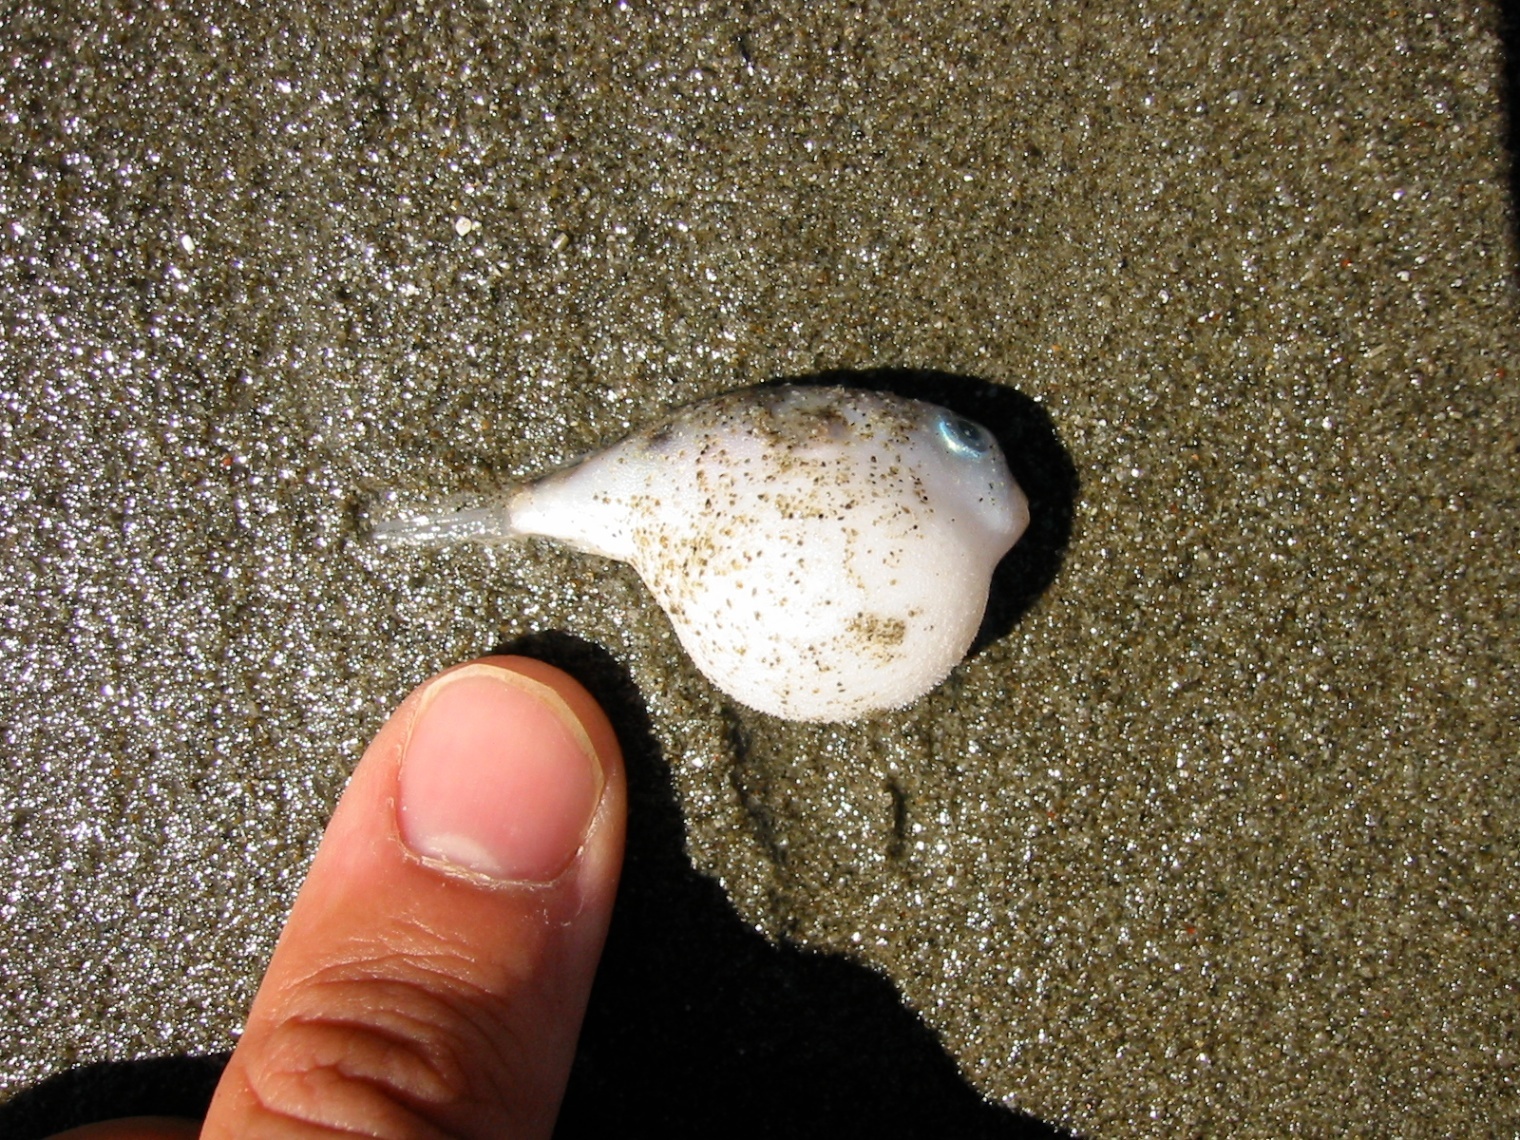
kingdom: Animalia
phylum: Chordata
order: Tetraodontiformes
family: Tetraodontidae
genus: Contusus
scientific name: Contusus richei
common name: Barred toadfish
